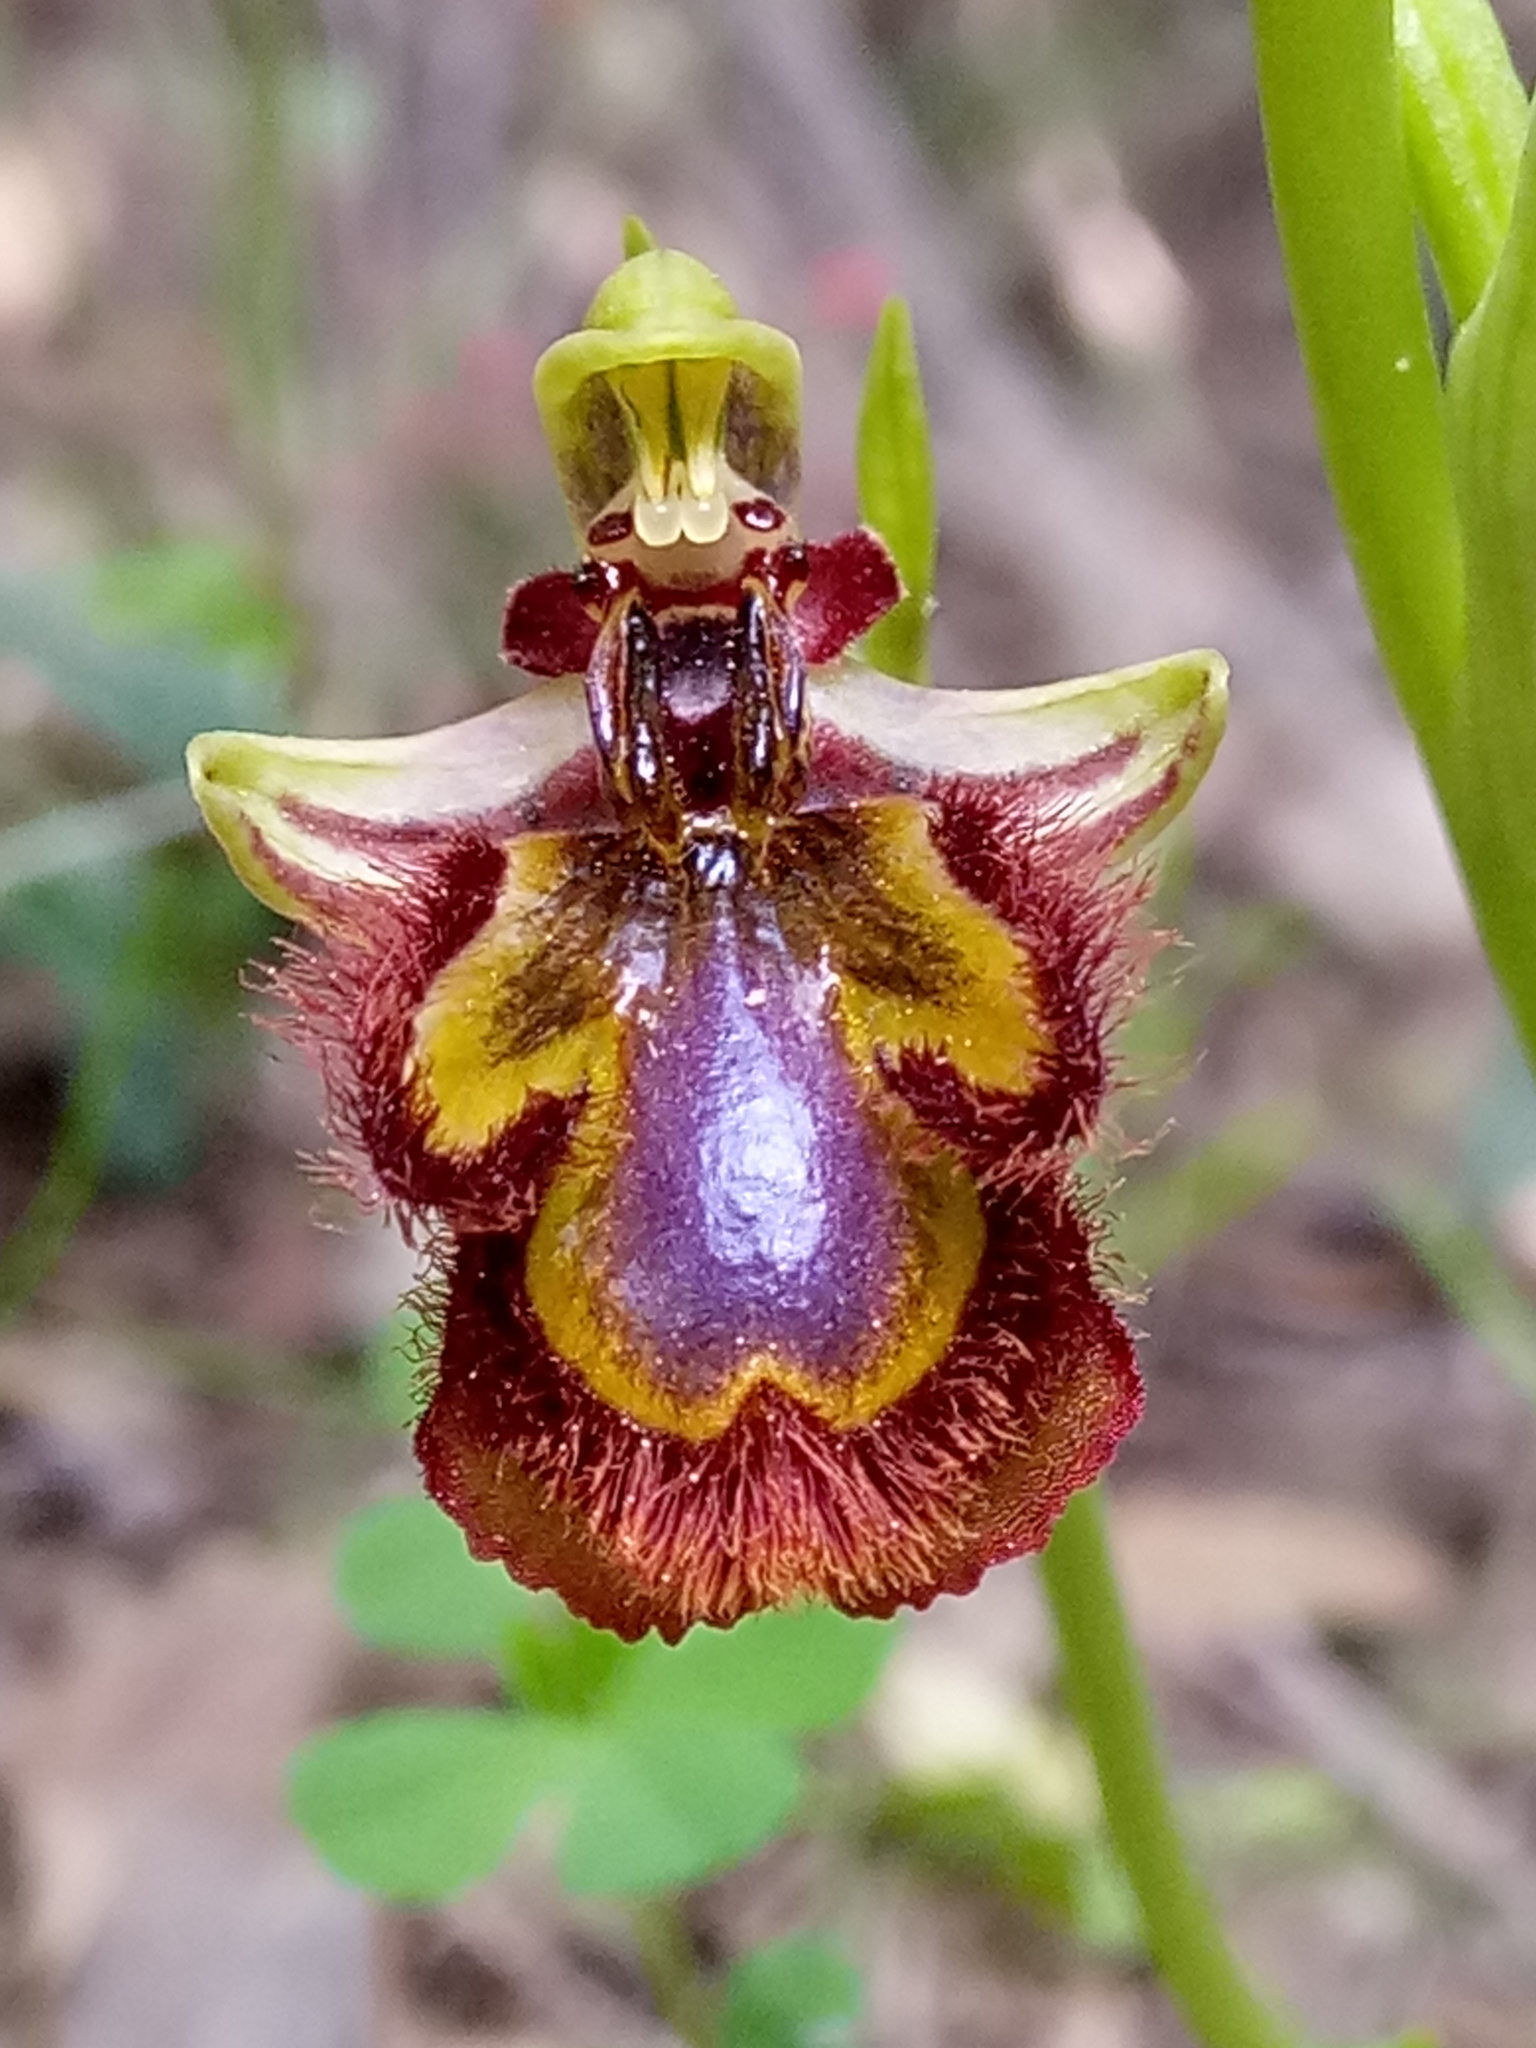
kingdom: Plantae
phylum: Tracheophyta
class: Liliopsida
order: Asparagales
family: Orchidaceae
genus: Ophrys
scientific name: Ophrys speculum
